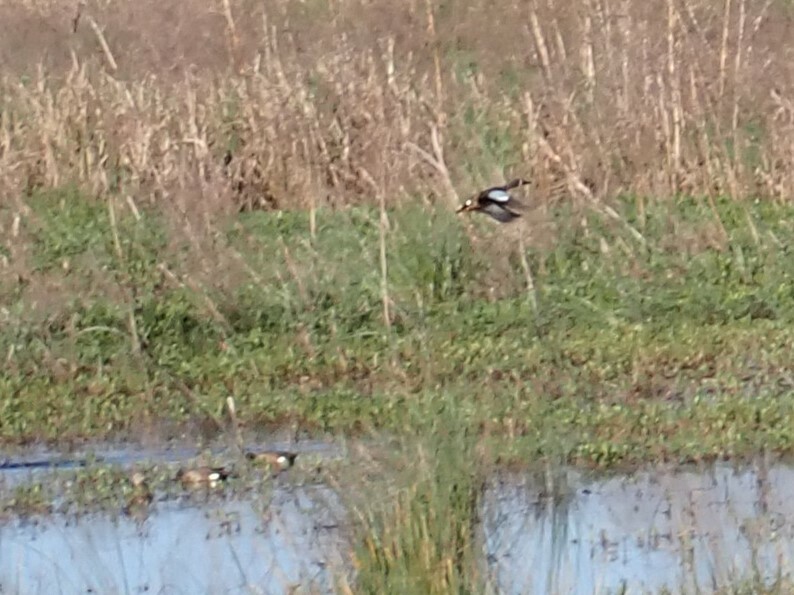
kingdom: Animalia
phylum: Chordata
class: Aves
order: Anseriformes
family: Anatidae
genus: Spatula
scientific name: Spatula discors
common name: Blue-winged teal
